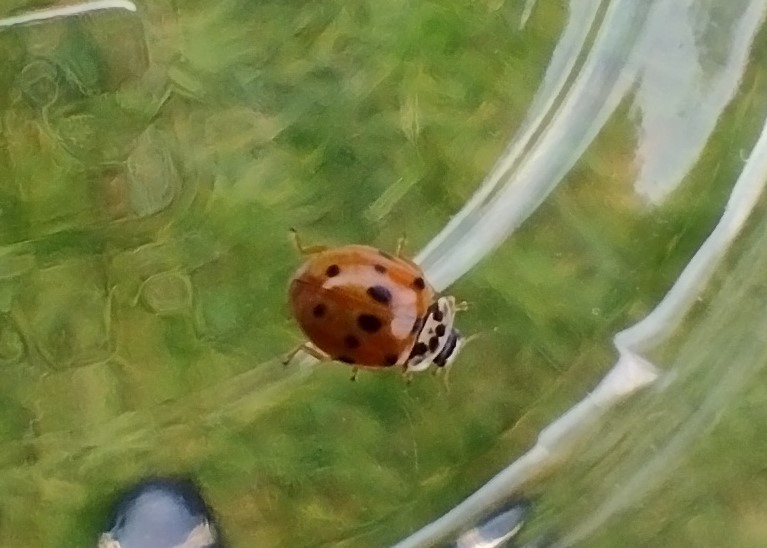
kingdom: Animalia
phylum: Arthropoda
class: Insecta
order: Coleoptera
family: Coccinellidae
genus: Adalia
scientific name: Adalia decempunctata
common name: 10-spot ladybird
